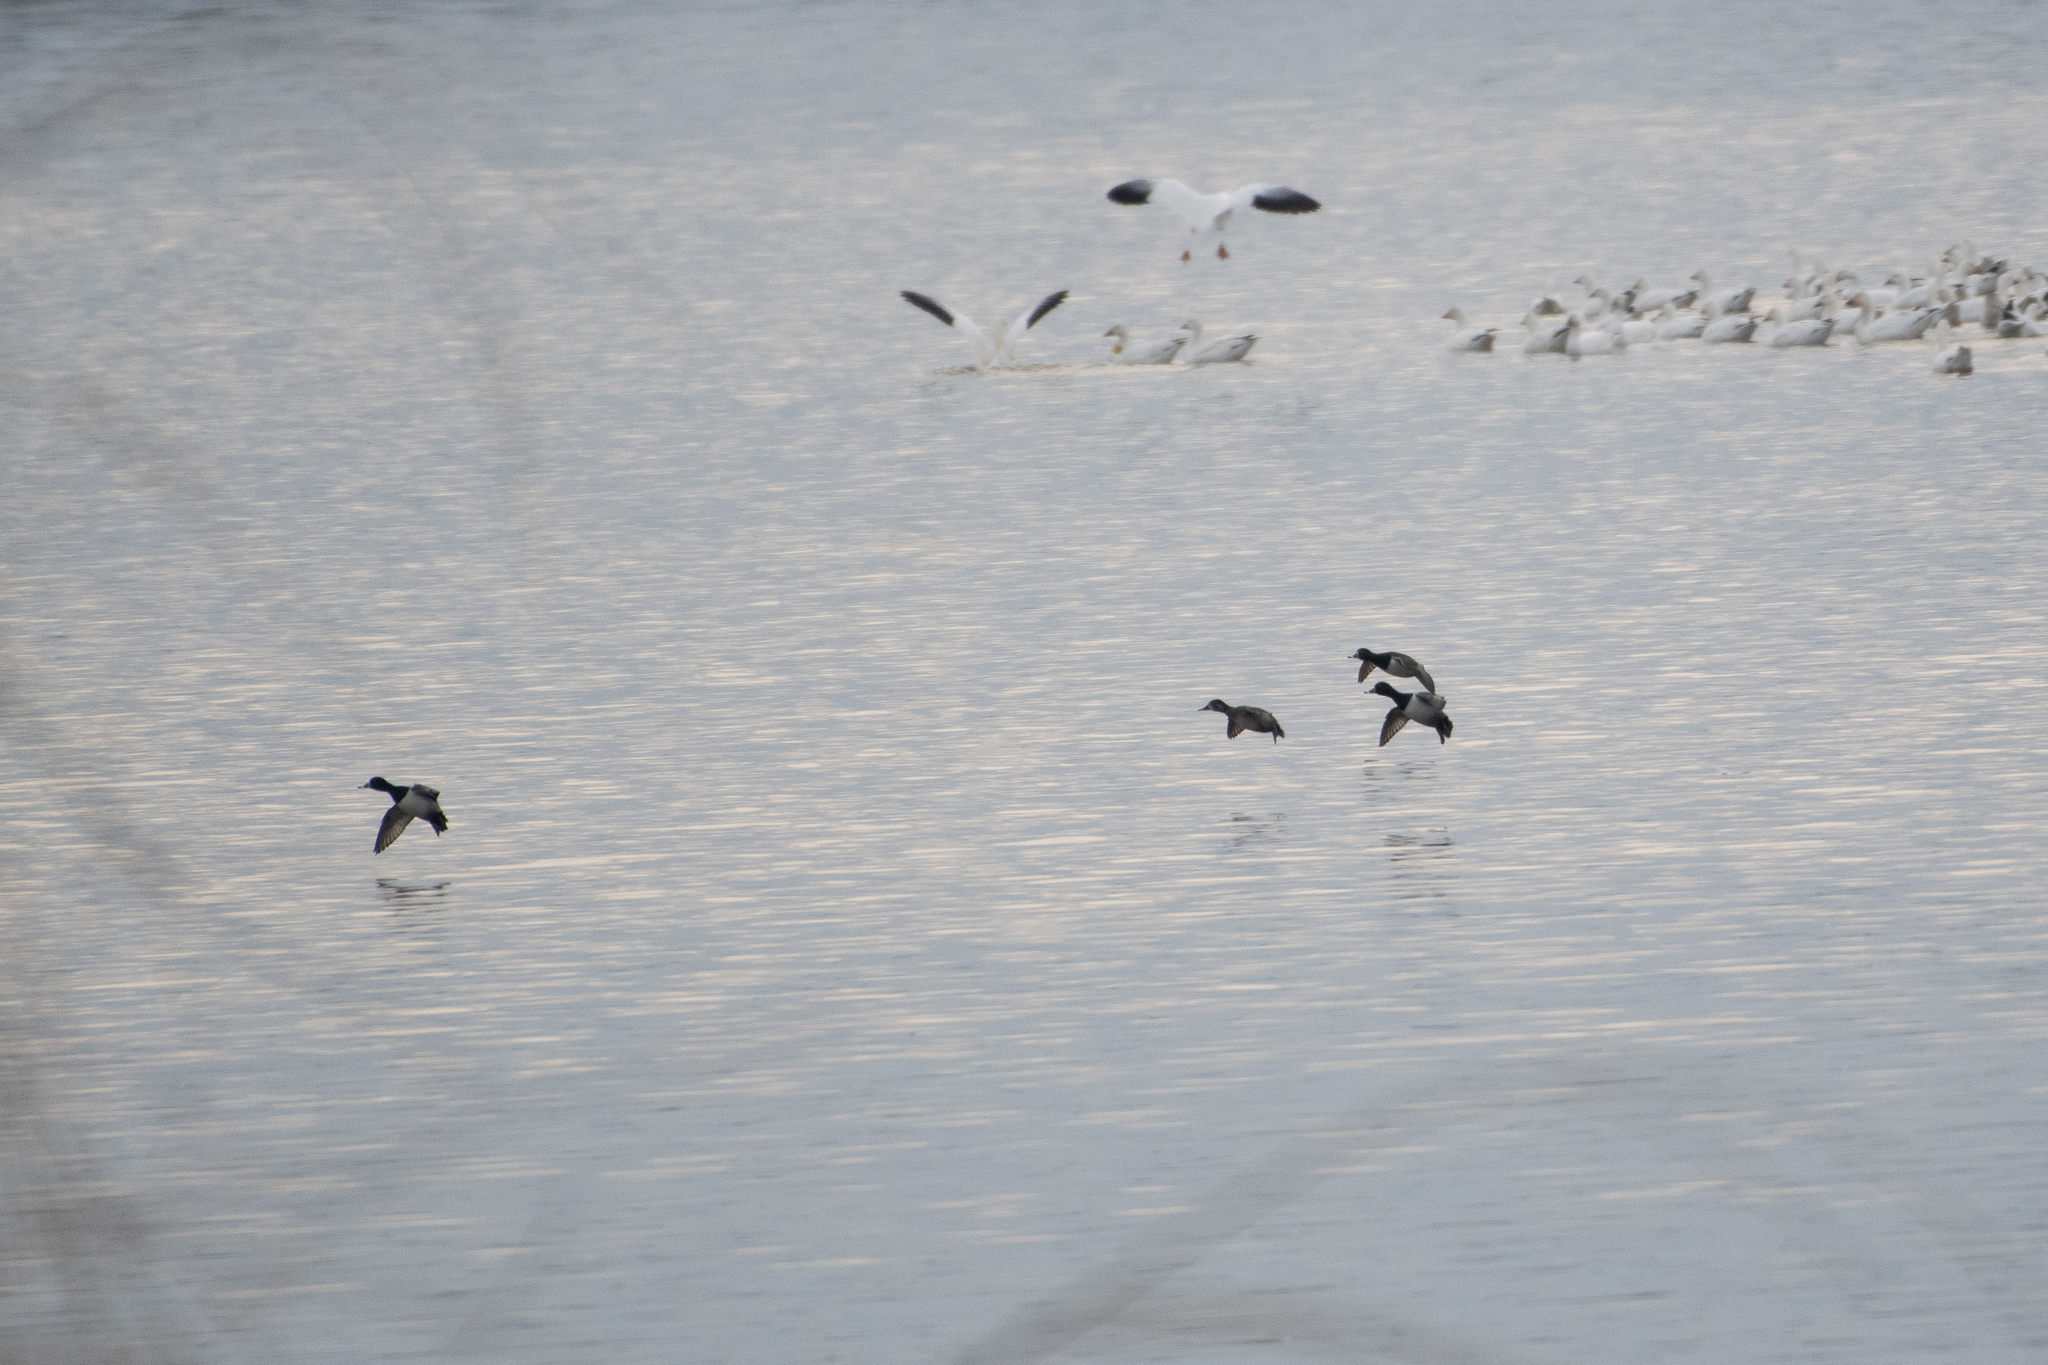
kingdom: Animalia
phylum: Chordata
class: Aves
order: Anseriformes
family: Anatidae
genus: Aythya
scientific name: Aythya collaris
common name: Ring-necked duck
